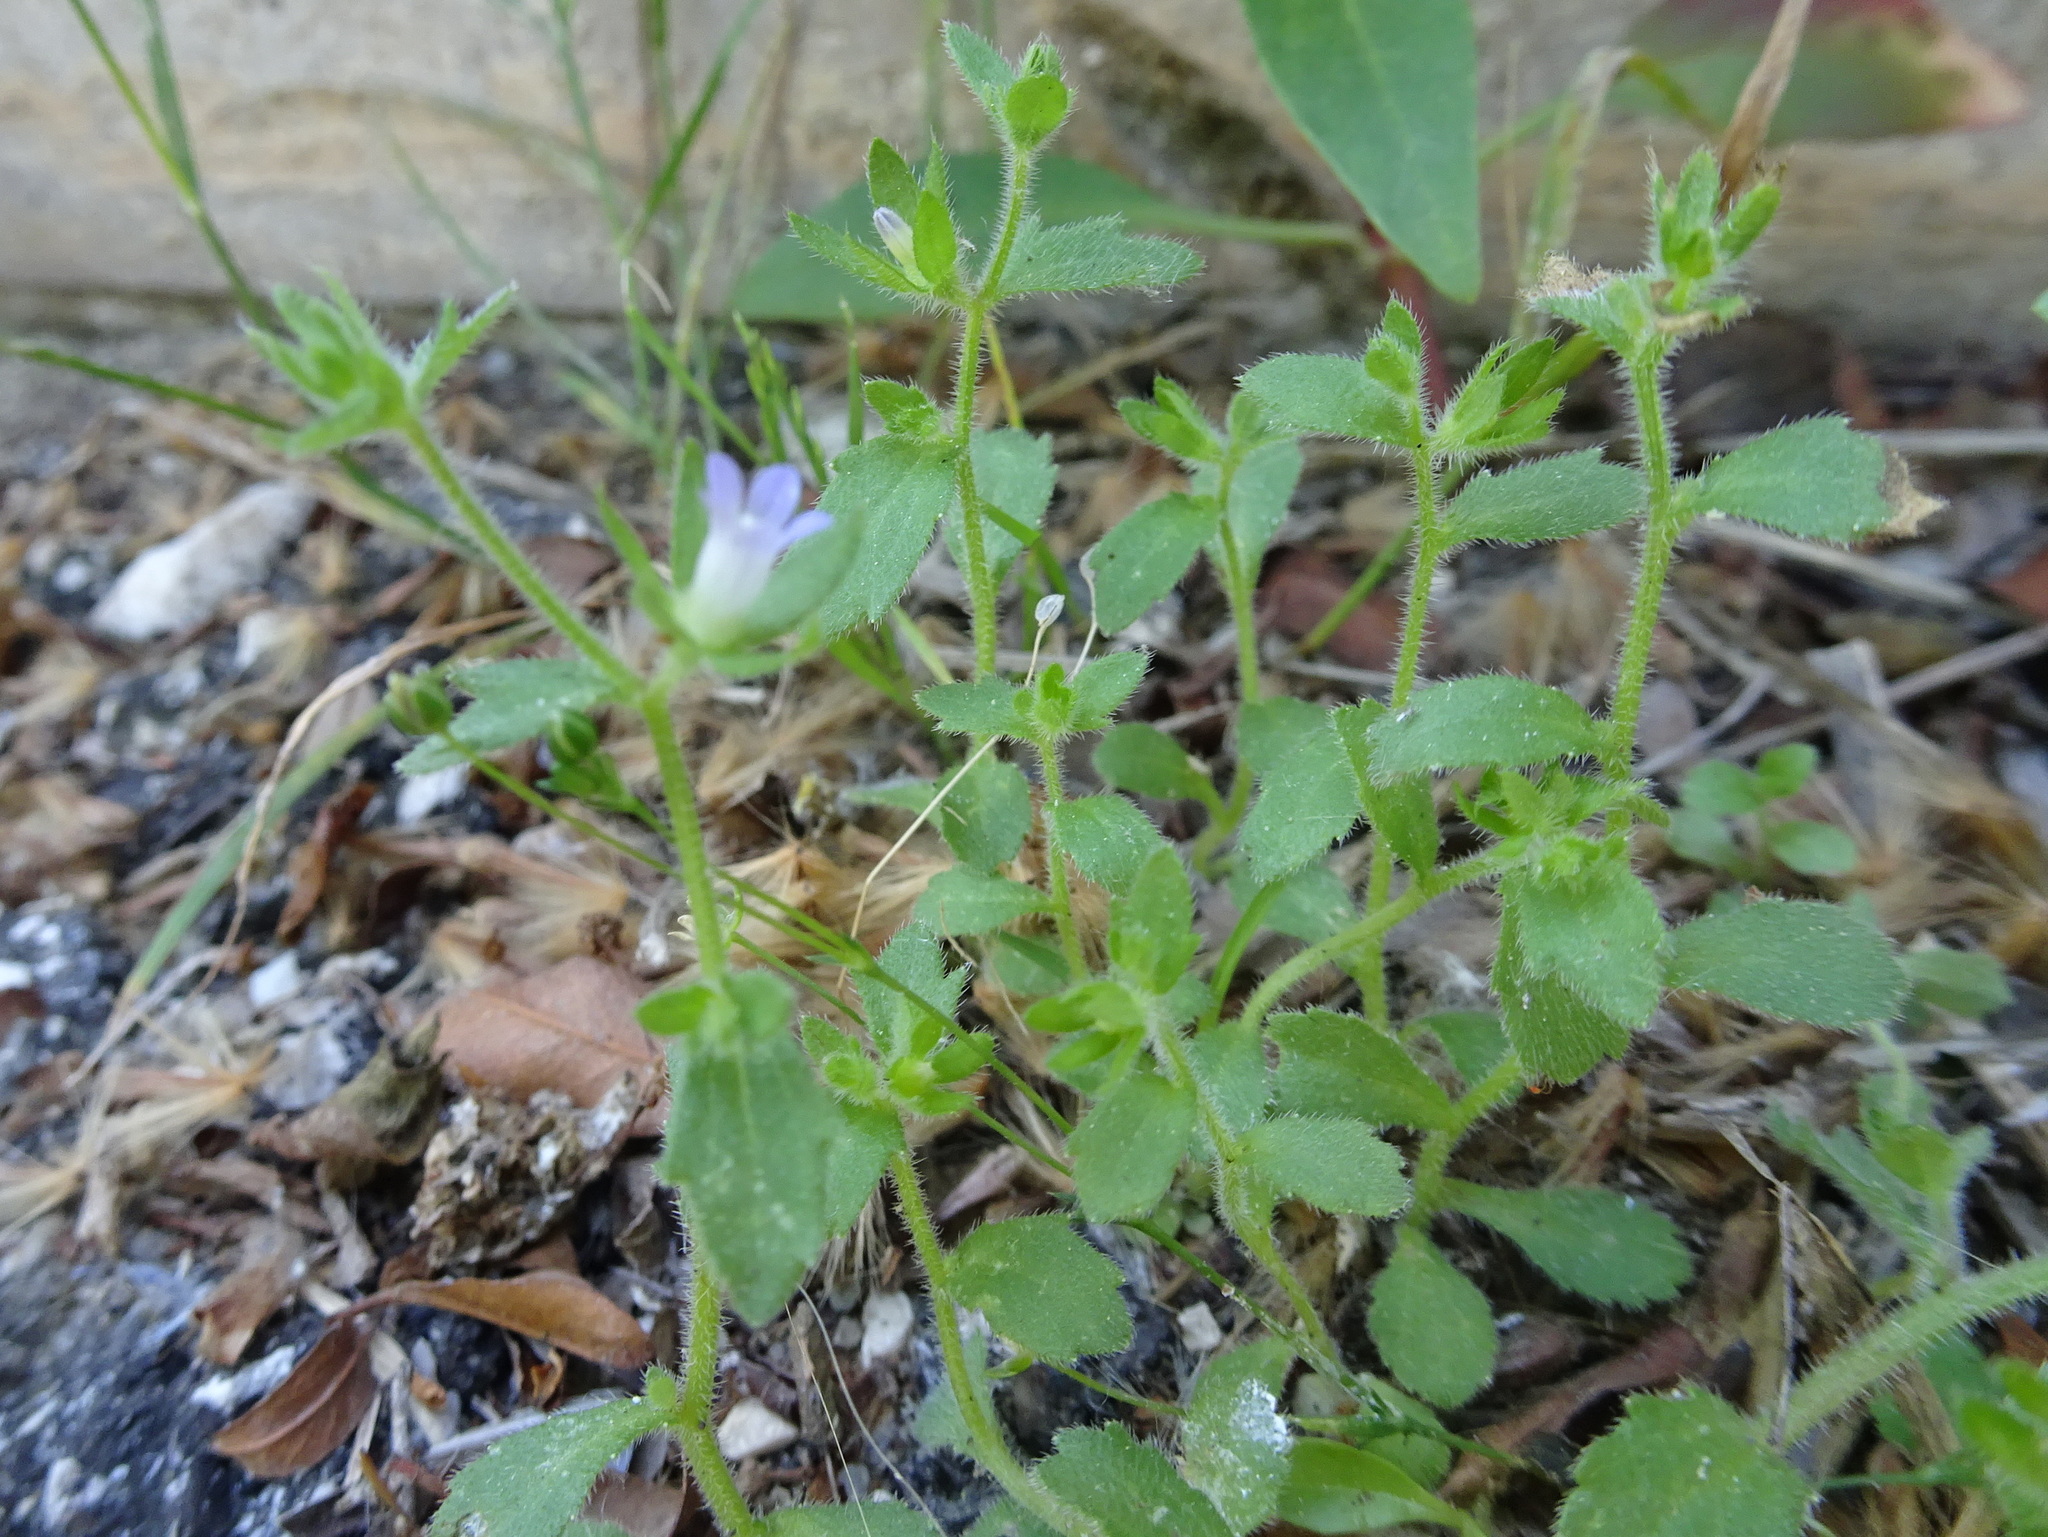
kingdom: Plantae
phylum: Tracheophyta
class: Magnoliopsida
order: Asterales
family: Campanulaceae
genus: Campanula
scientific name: Campanula erinus
